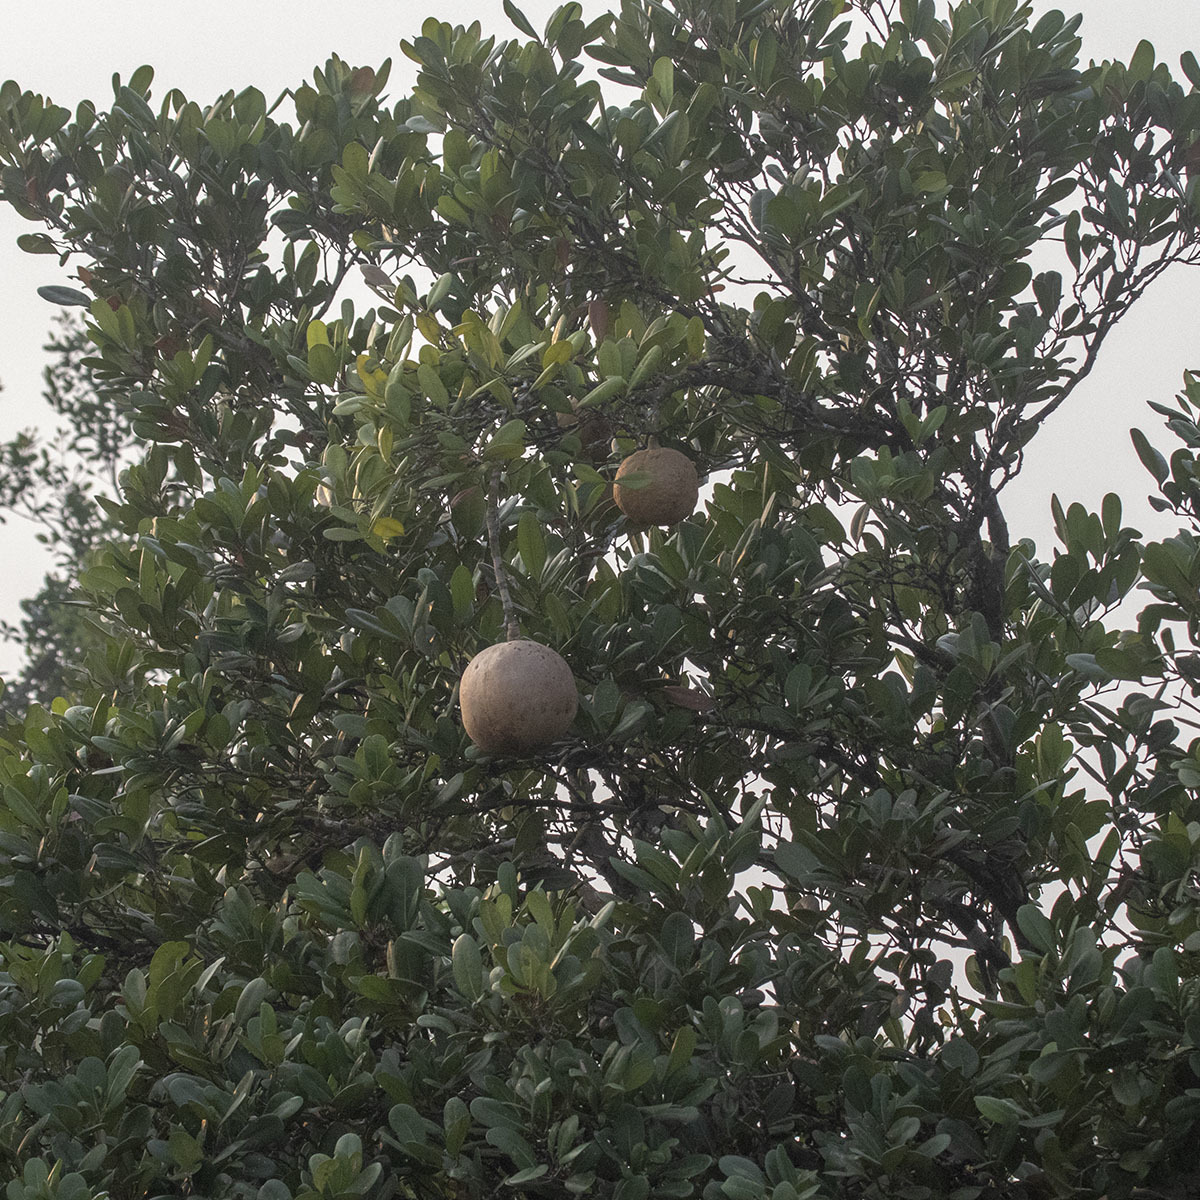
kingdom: Plantae
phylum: Tracheophyta
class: Magnoliopsida
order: Sapindales
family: Meliaceae
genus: Xylocarpus
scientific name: Xylocarpus granatum
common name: Apple mangrove
